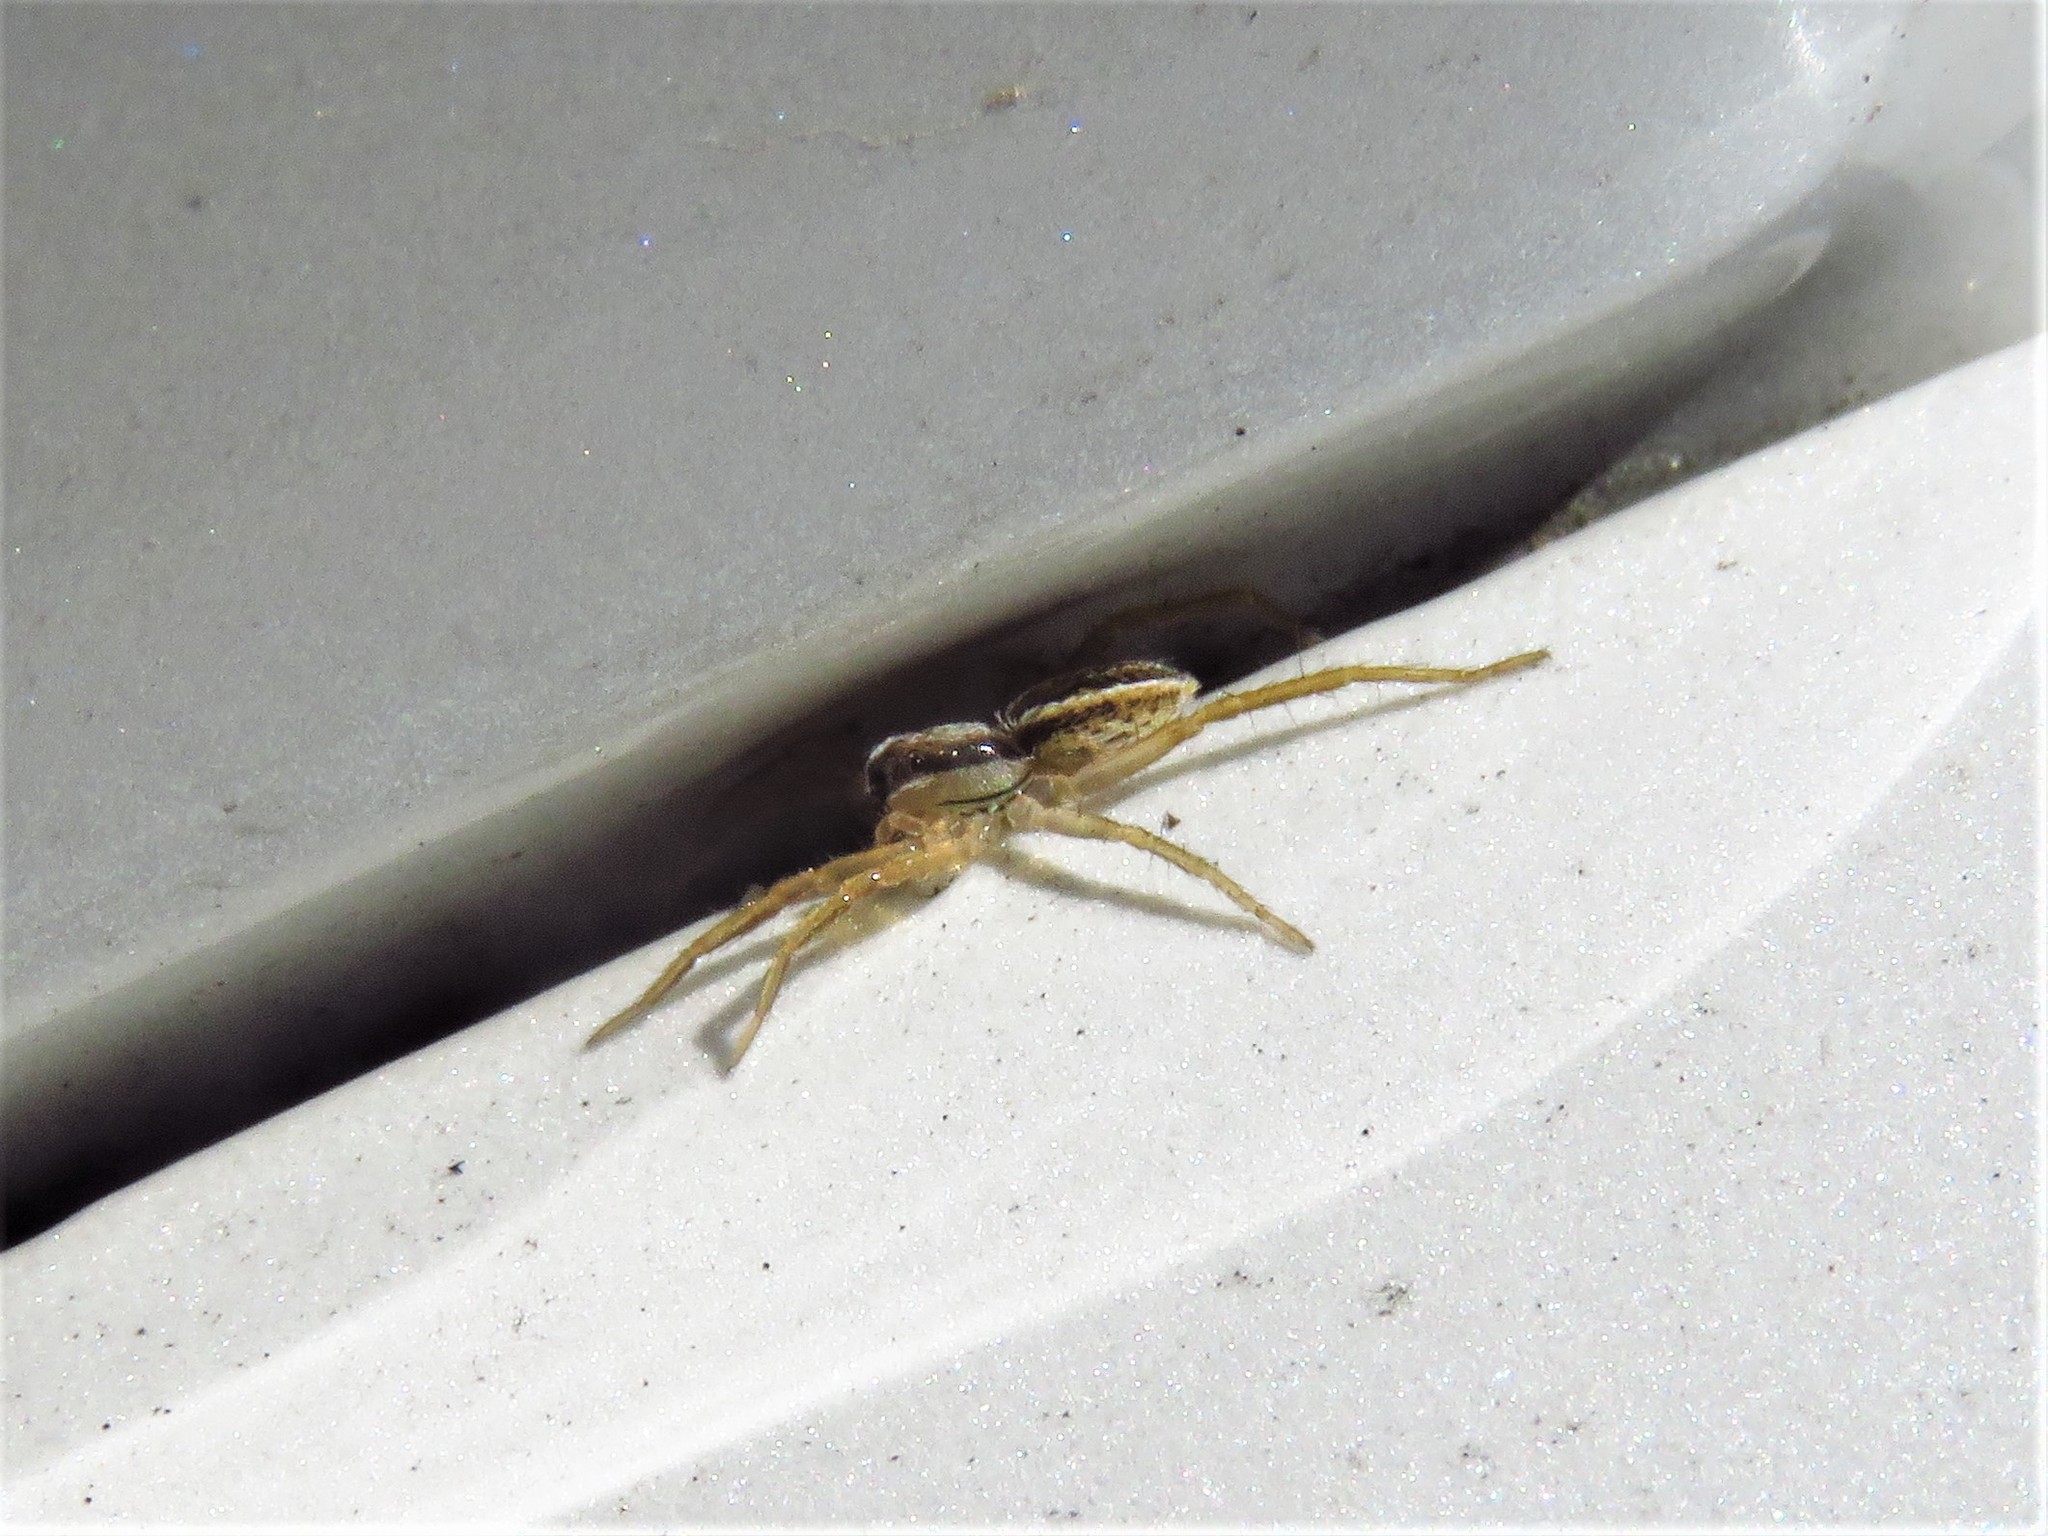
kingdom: Animalia
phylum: Arthropoda
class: Arachnida
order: Araneae
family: Lycosidae
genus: Rabidosa
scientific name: Rabidosa rabida
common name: Rabid wolf spider
